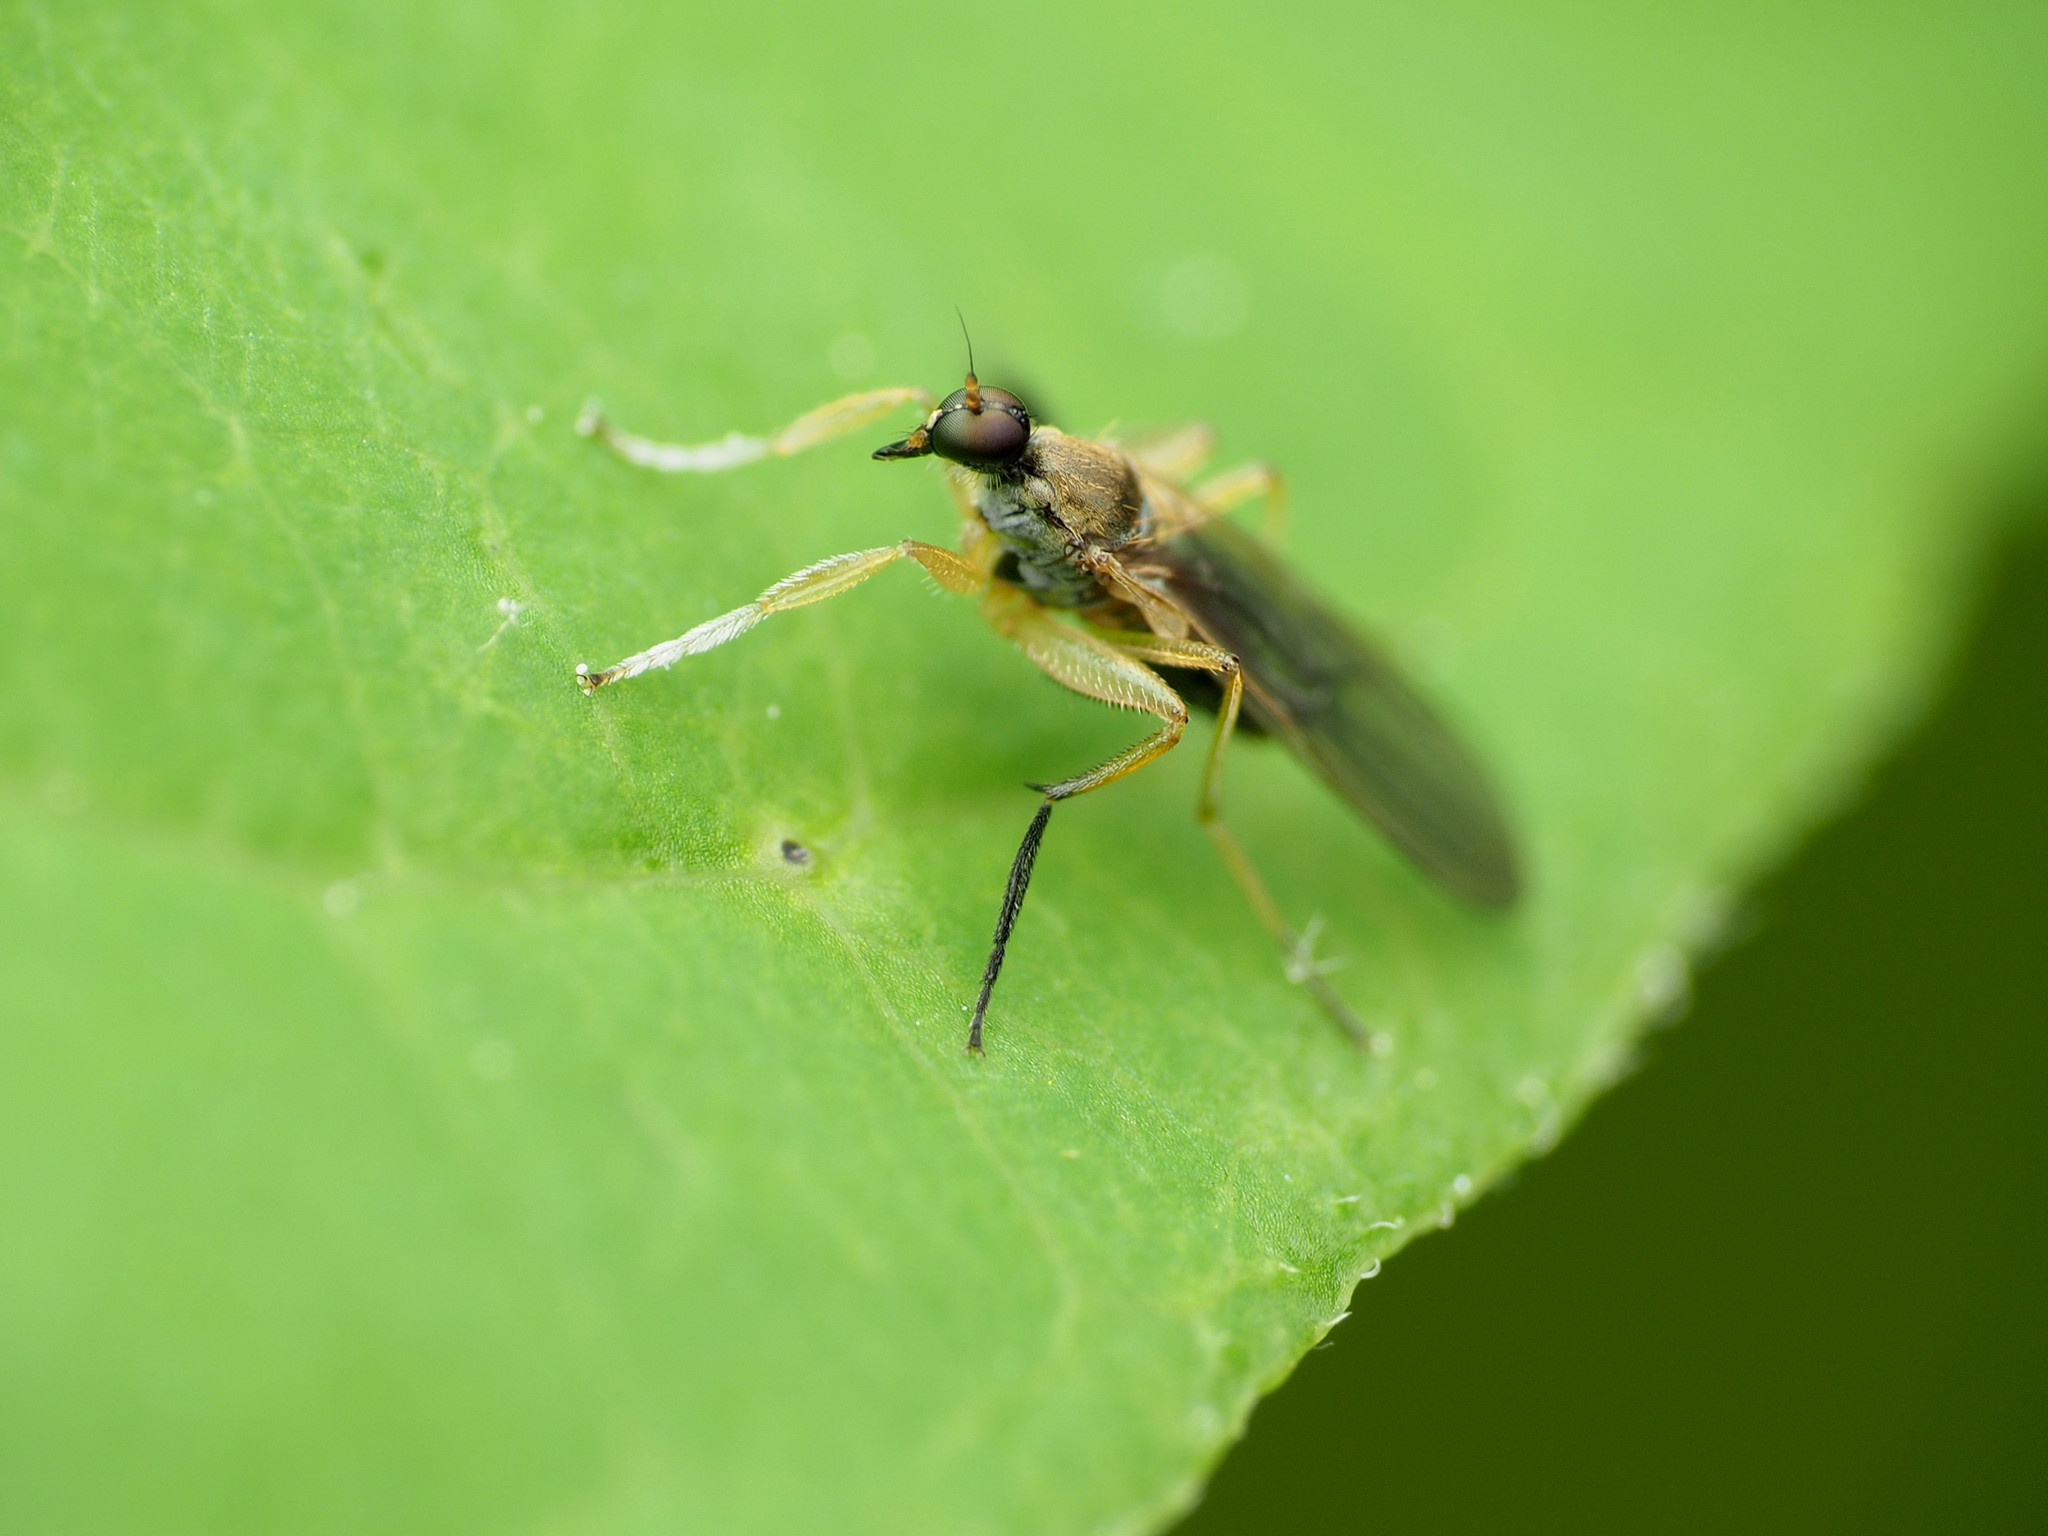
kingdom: Animalia
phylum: Arthropoda
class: Insecta
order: Diptera
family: Hybotidae
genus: Platypalpus
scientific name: Platypalpus discifer
